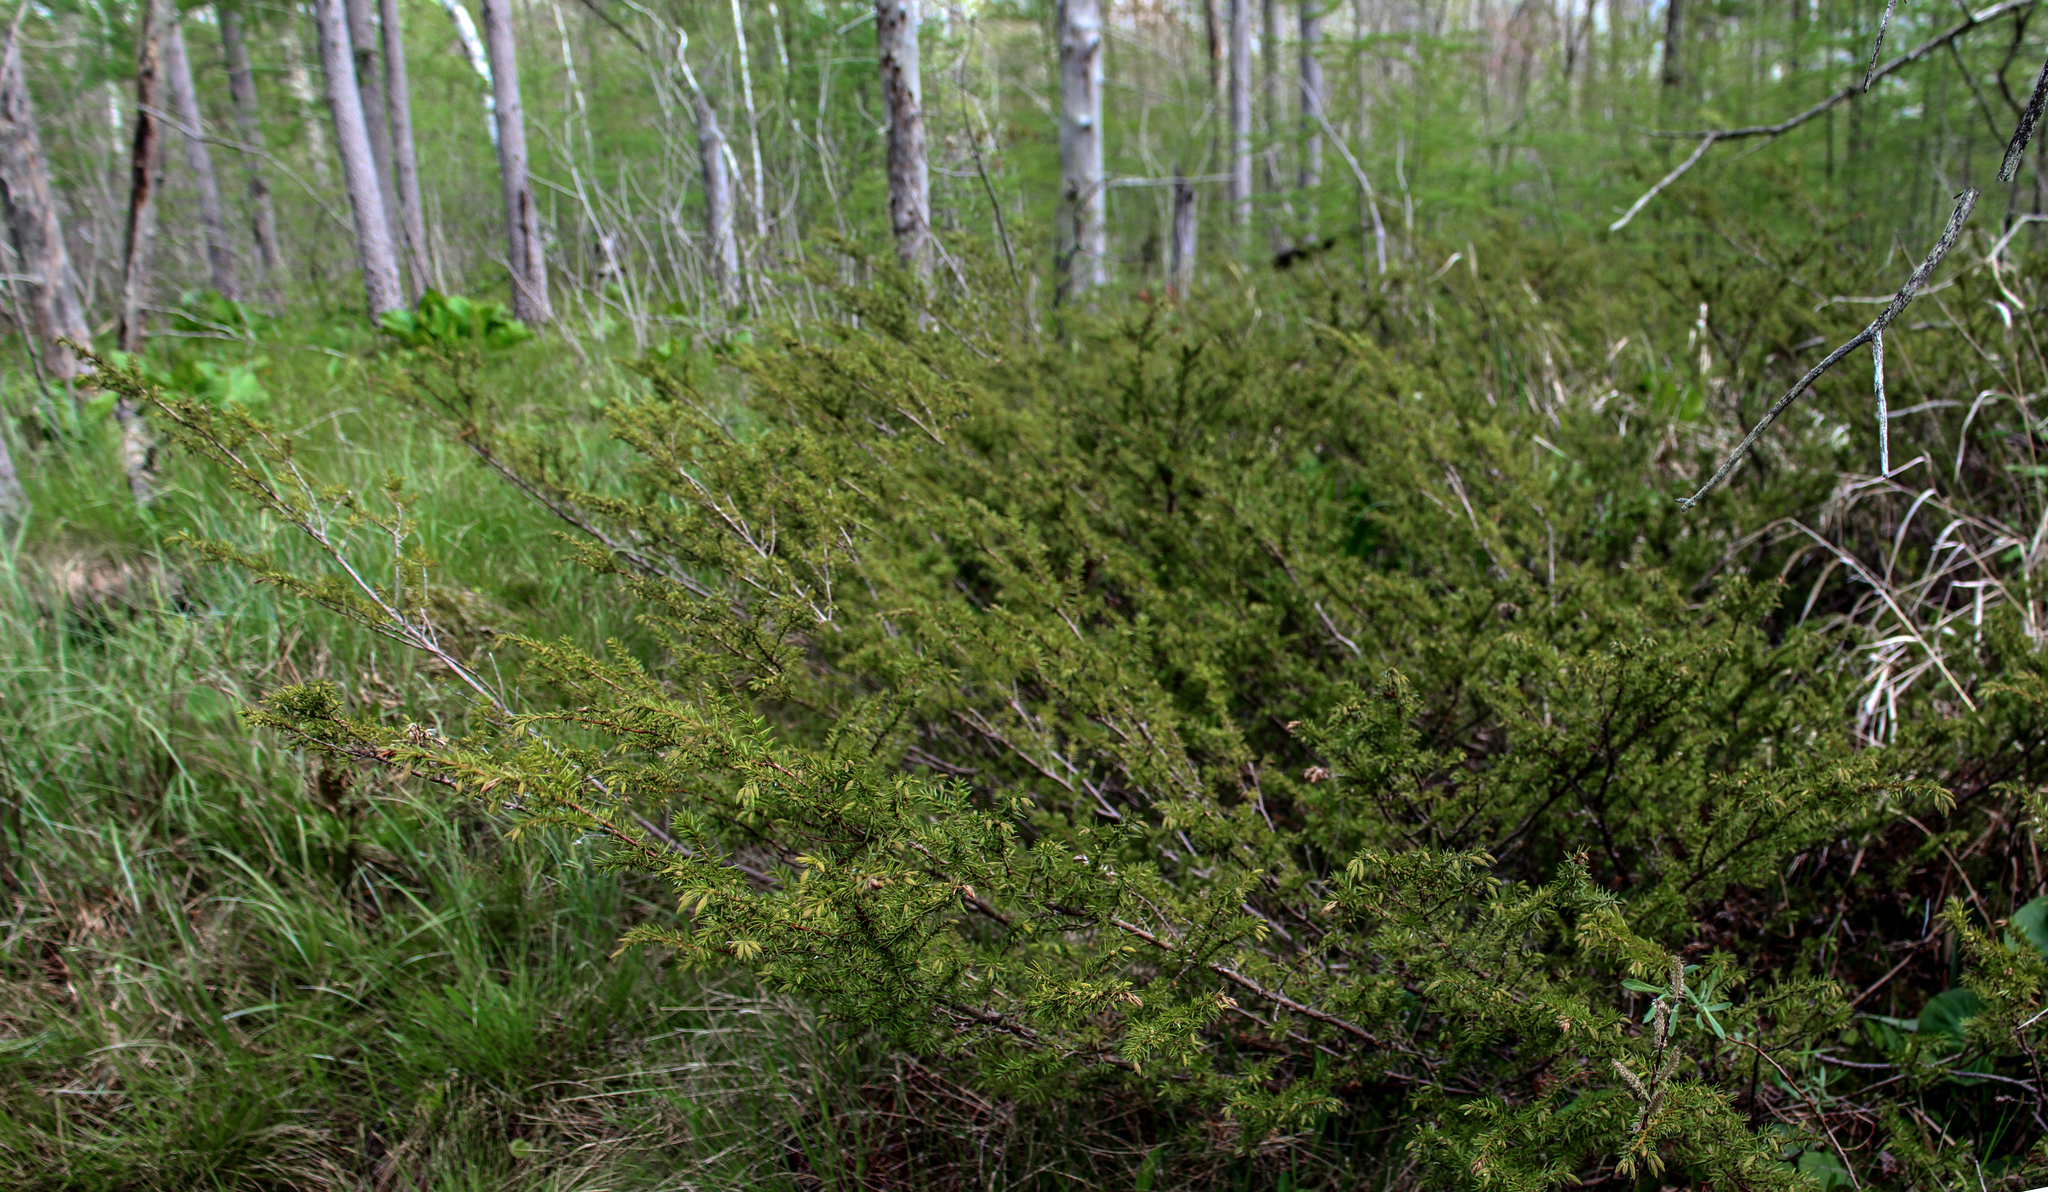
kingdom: Plantae
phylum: Tracheophyta
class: Pinopsida
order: Pinales
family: Cupressaceae
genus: Juniperus
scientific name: Juniperus communis
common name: Common juniper
